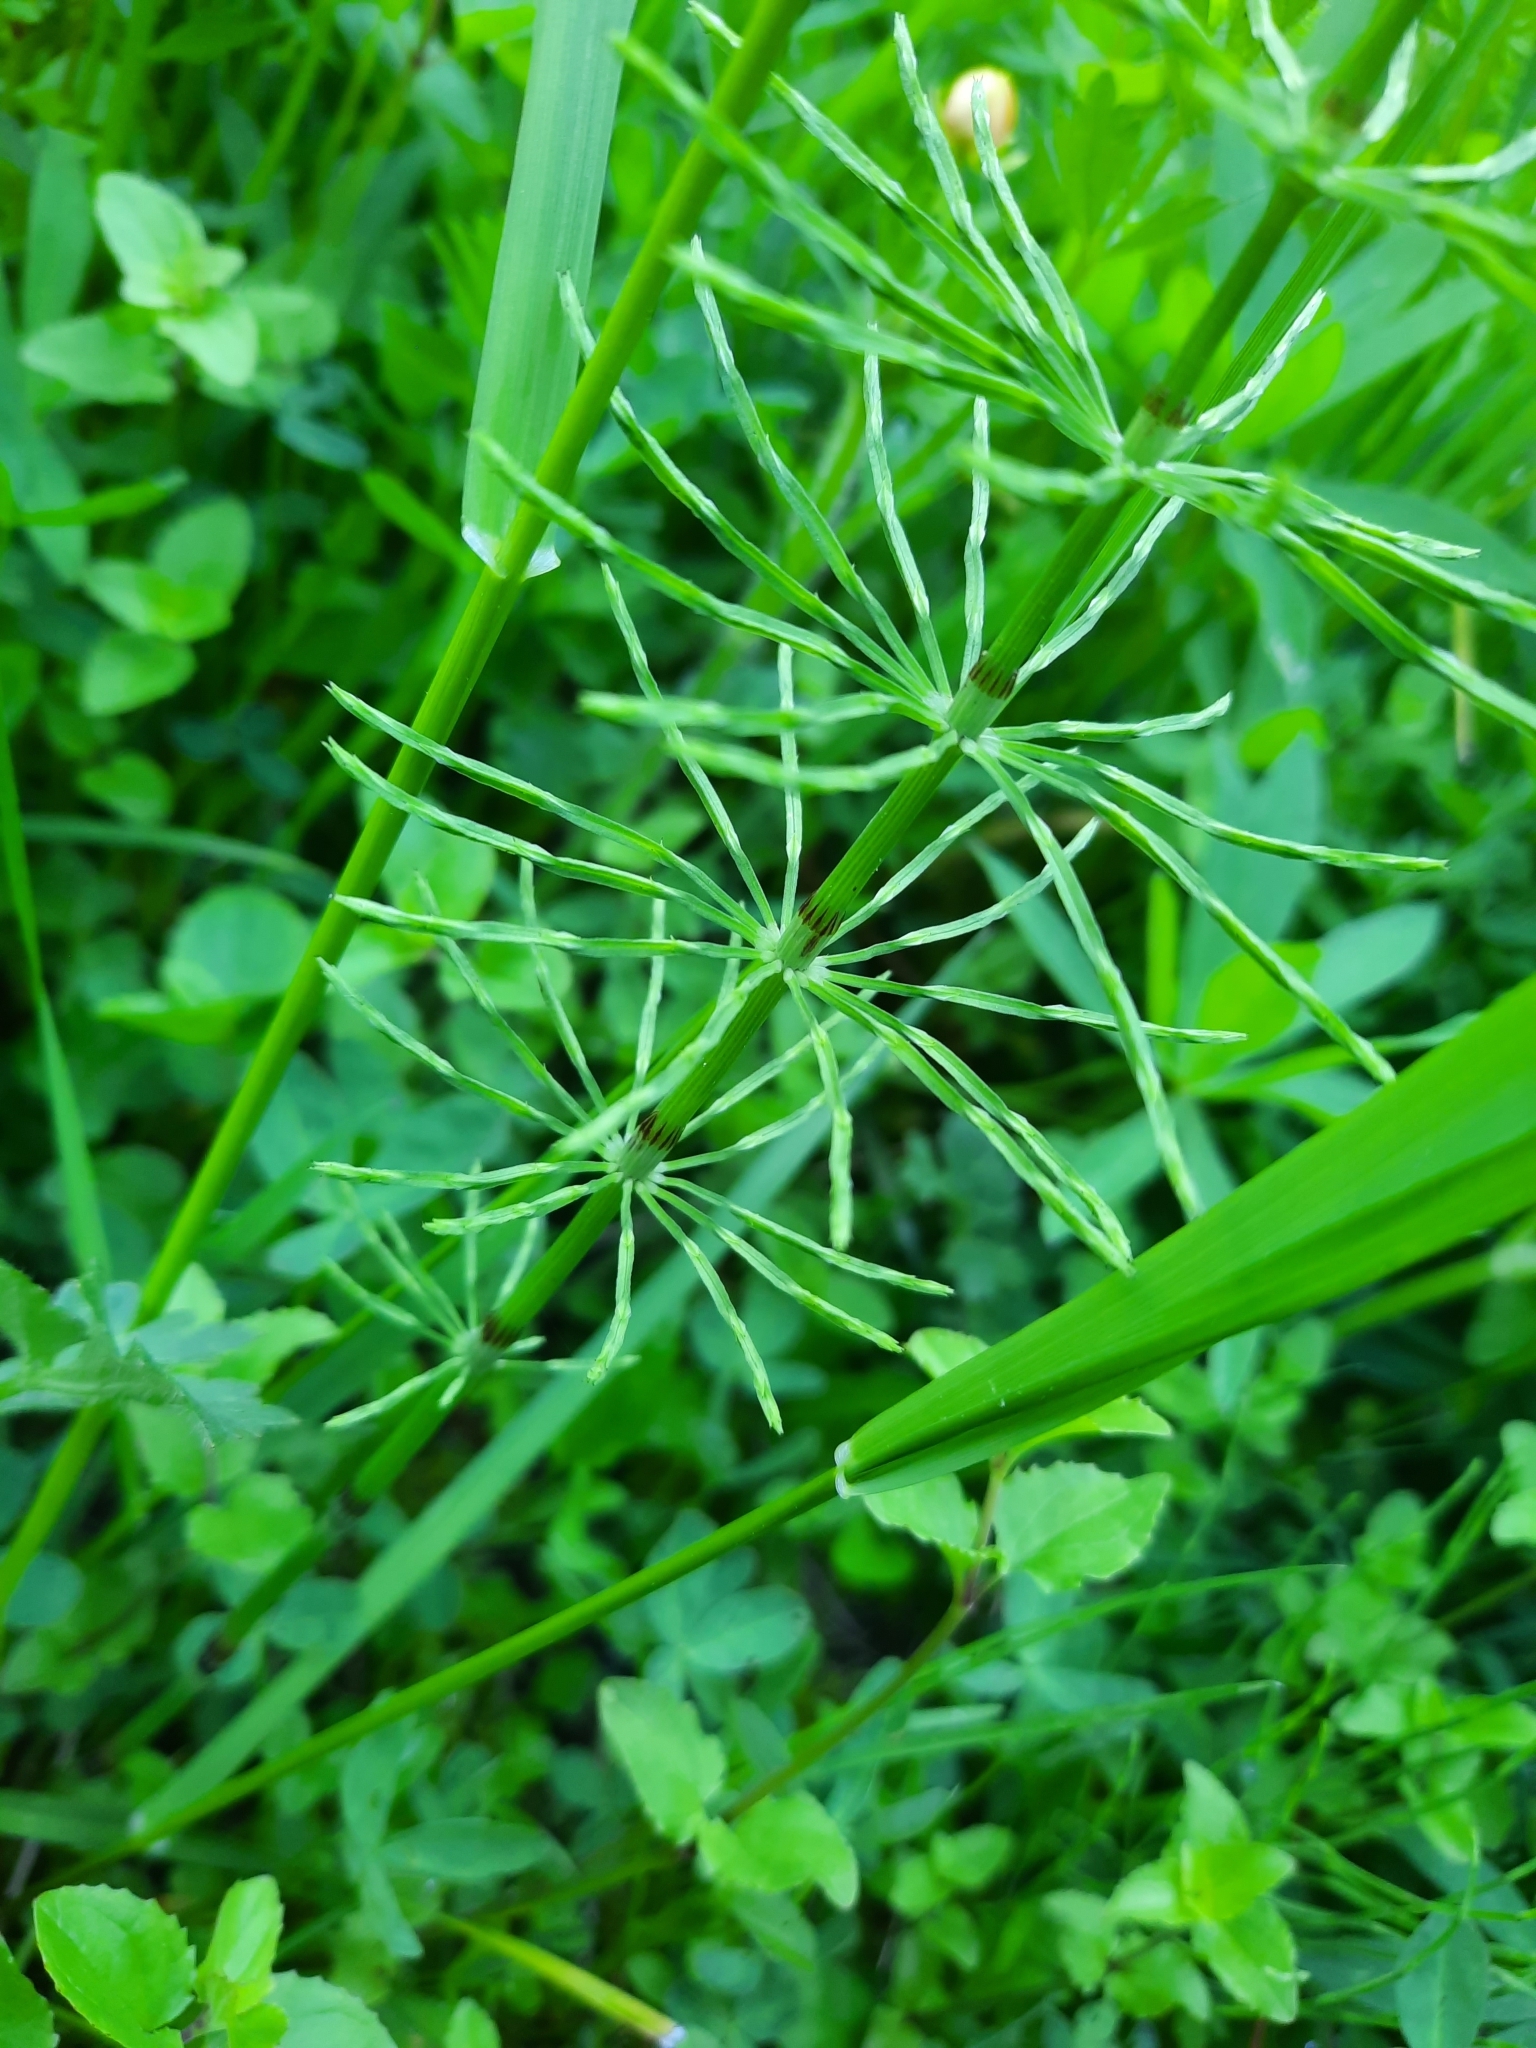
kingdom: Plantae
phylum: Tracheophyta
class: Polypodiopsida
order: Equisetales
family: Equisetaceae
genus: Equisetum
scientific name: Equisetum arvense
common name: Field horsetail
